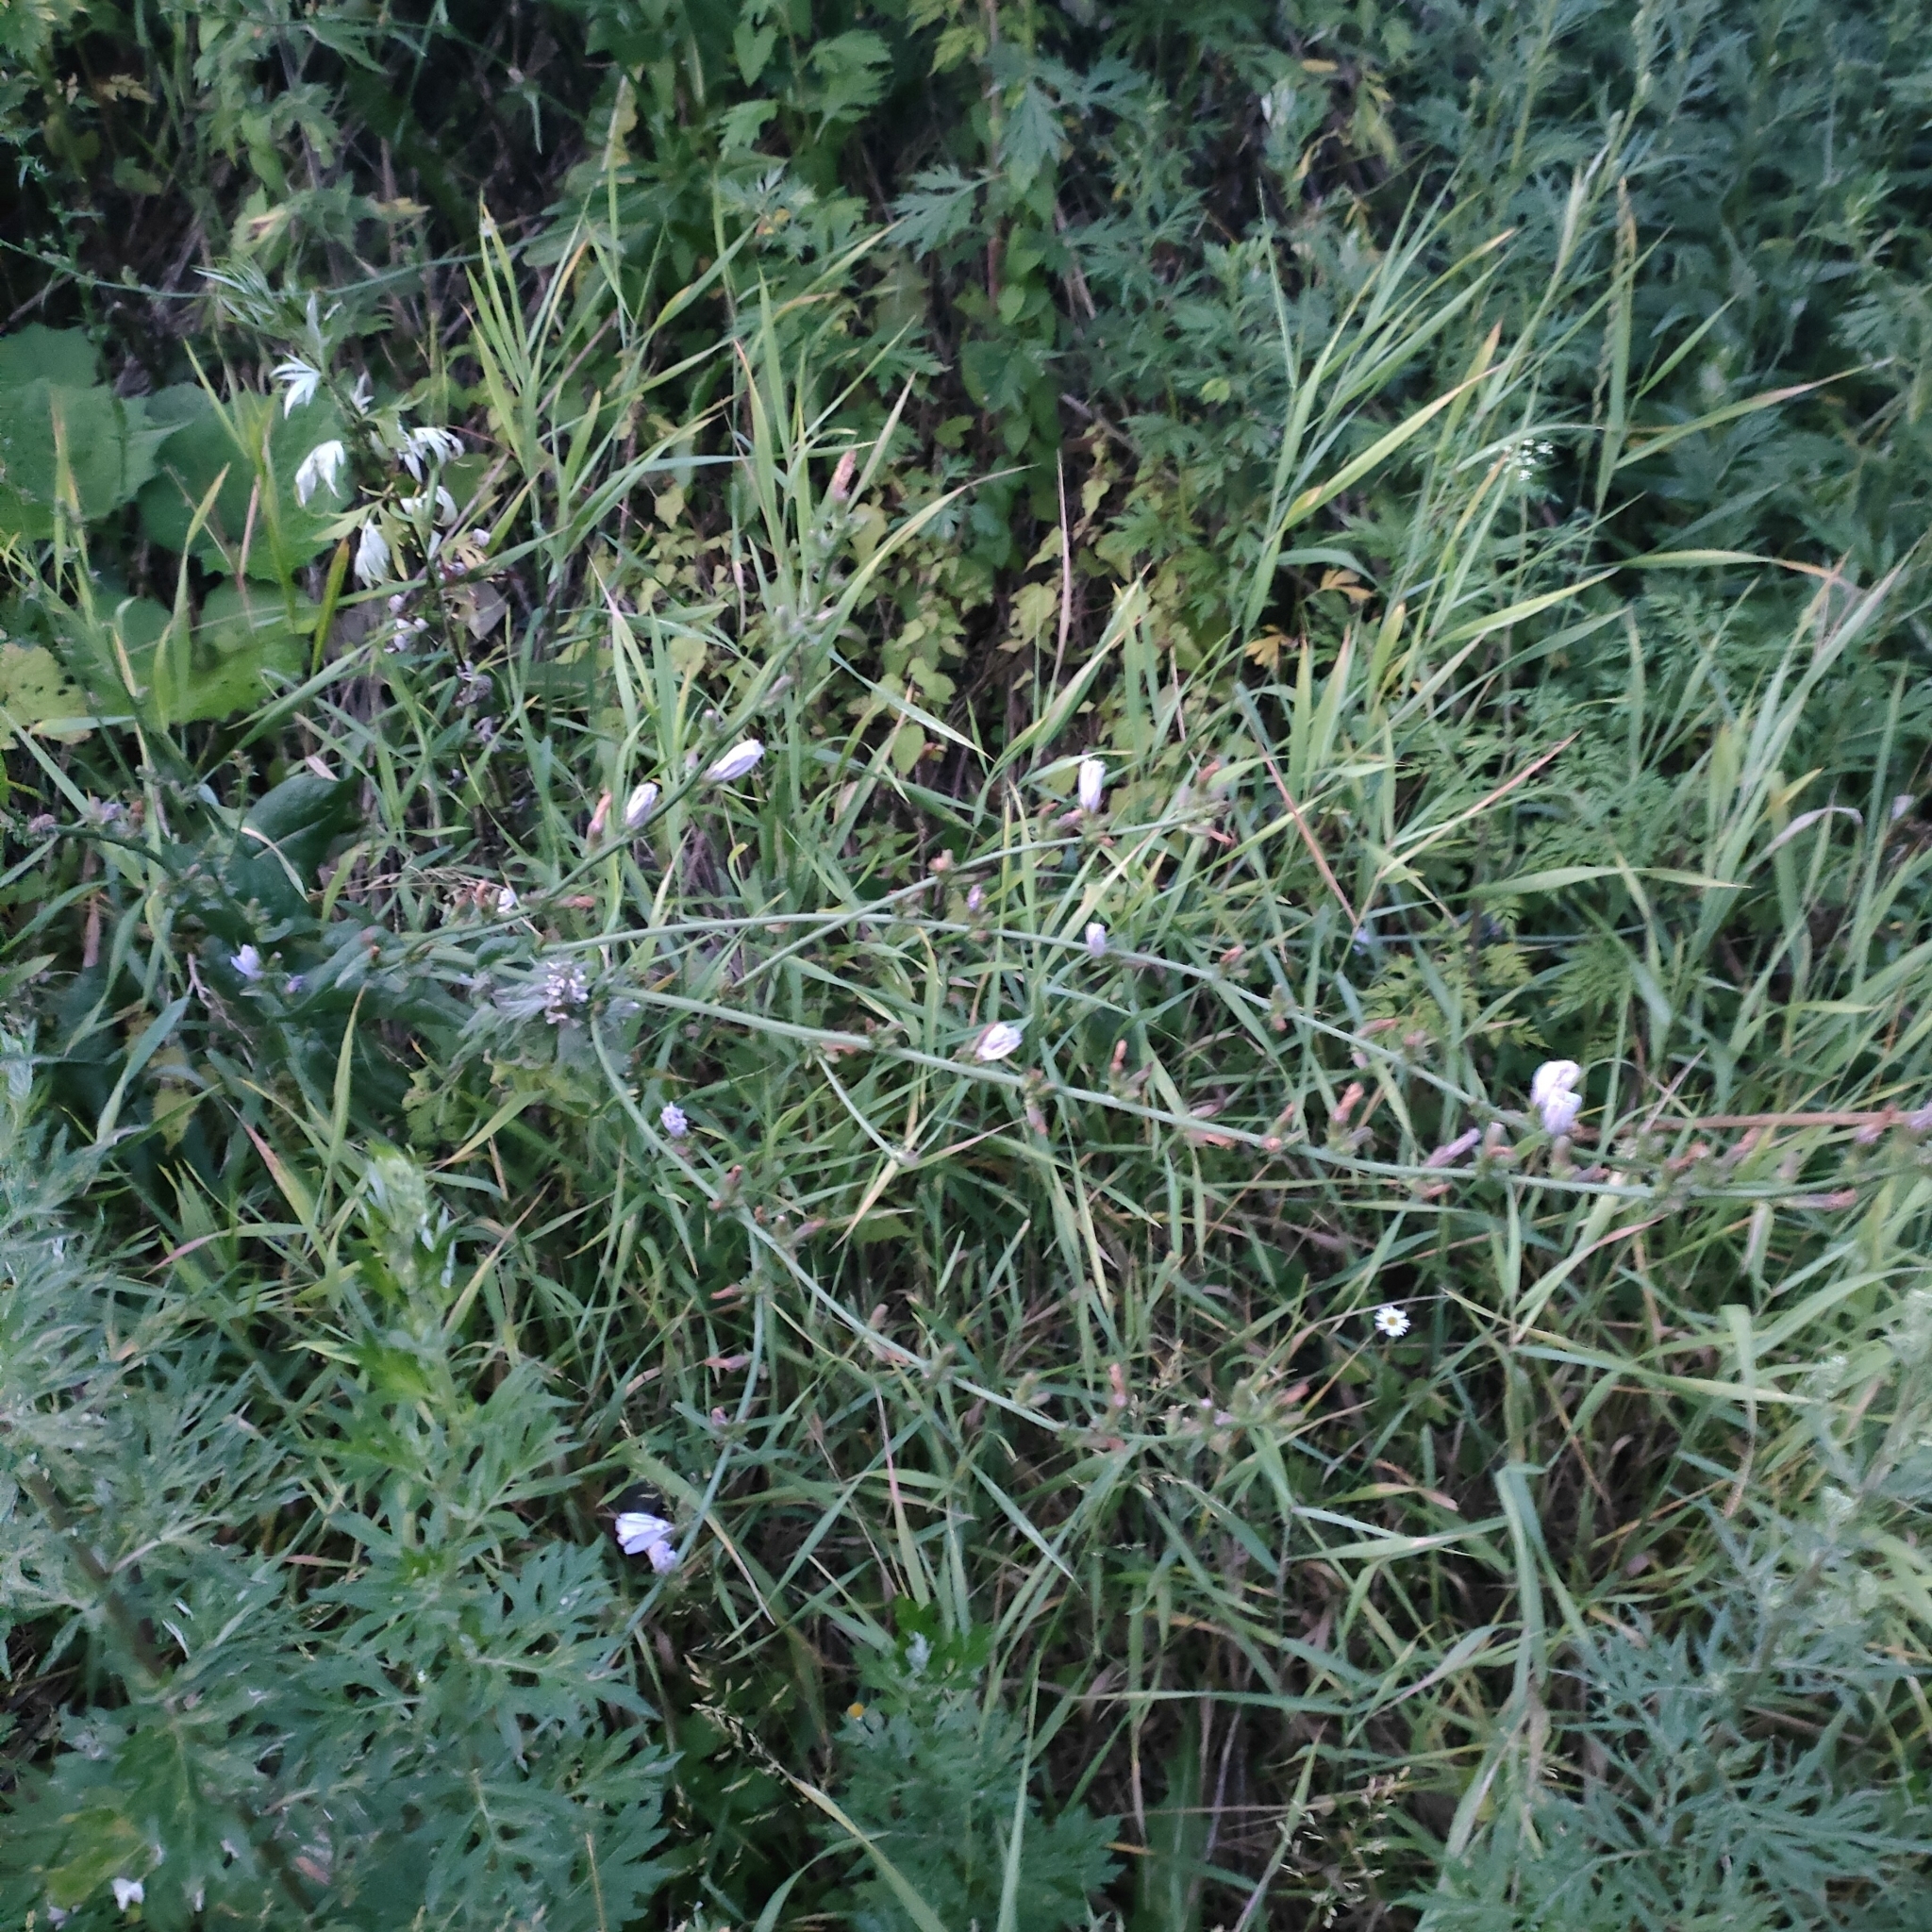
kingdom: Plantae
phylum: Tracheophyta
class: Magnoliopsida
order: Asterales
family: Asteraceae
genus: Cichorium
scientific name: Cichorium intybus
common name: Chicory
